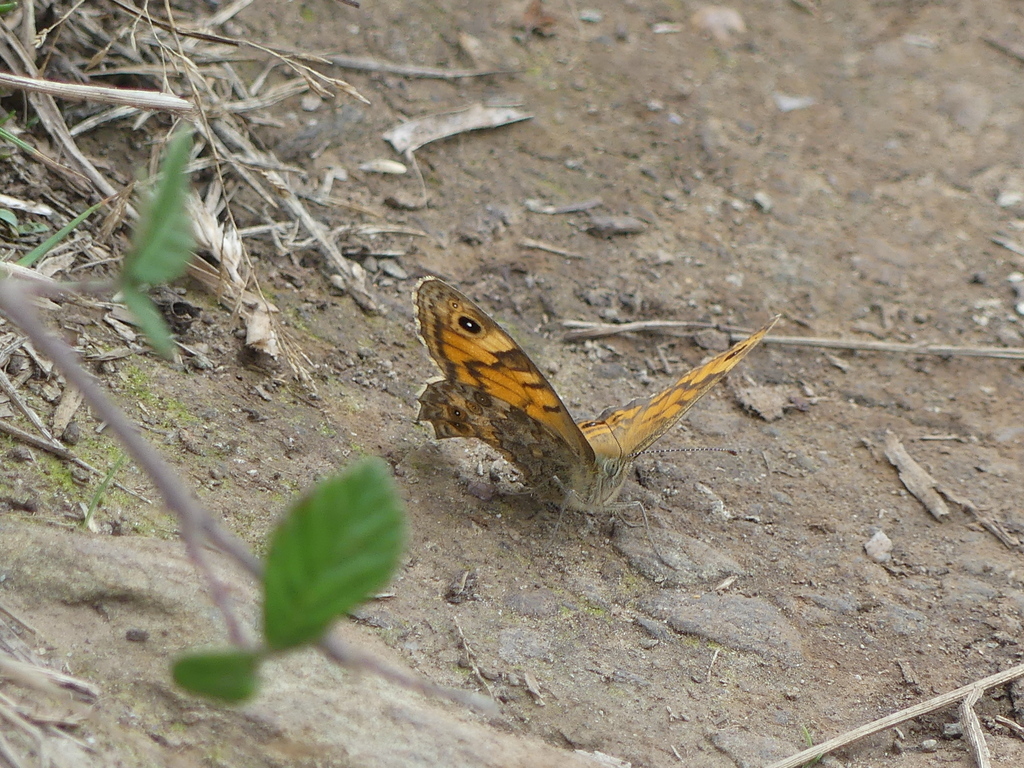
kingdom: Animalia
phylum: Arthropoda
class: Insecta
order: Lepidoptera
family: Nymphalidae
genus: Pararge
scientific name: Pararge Lasiommata megera
